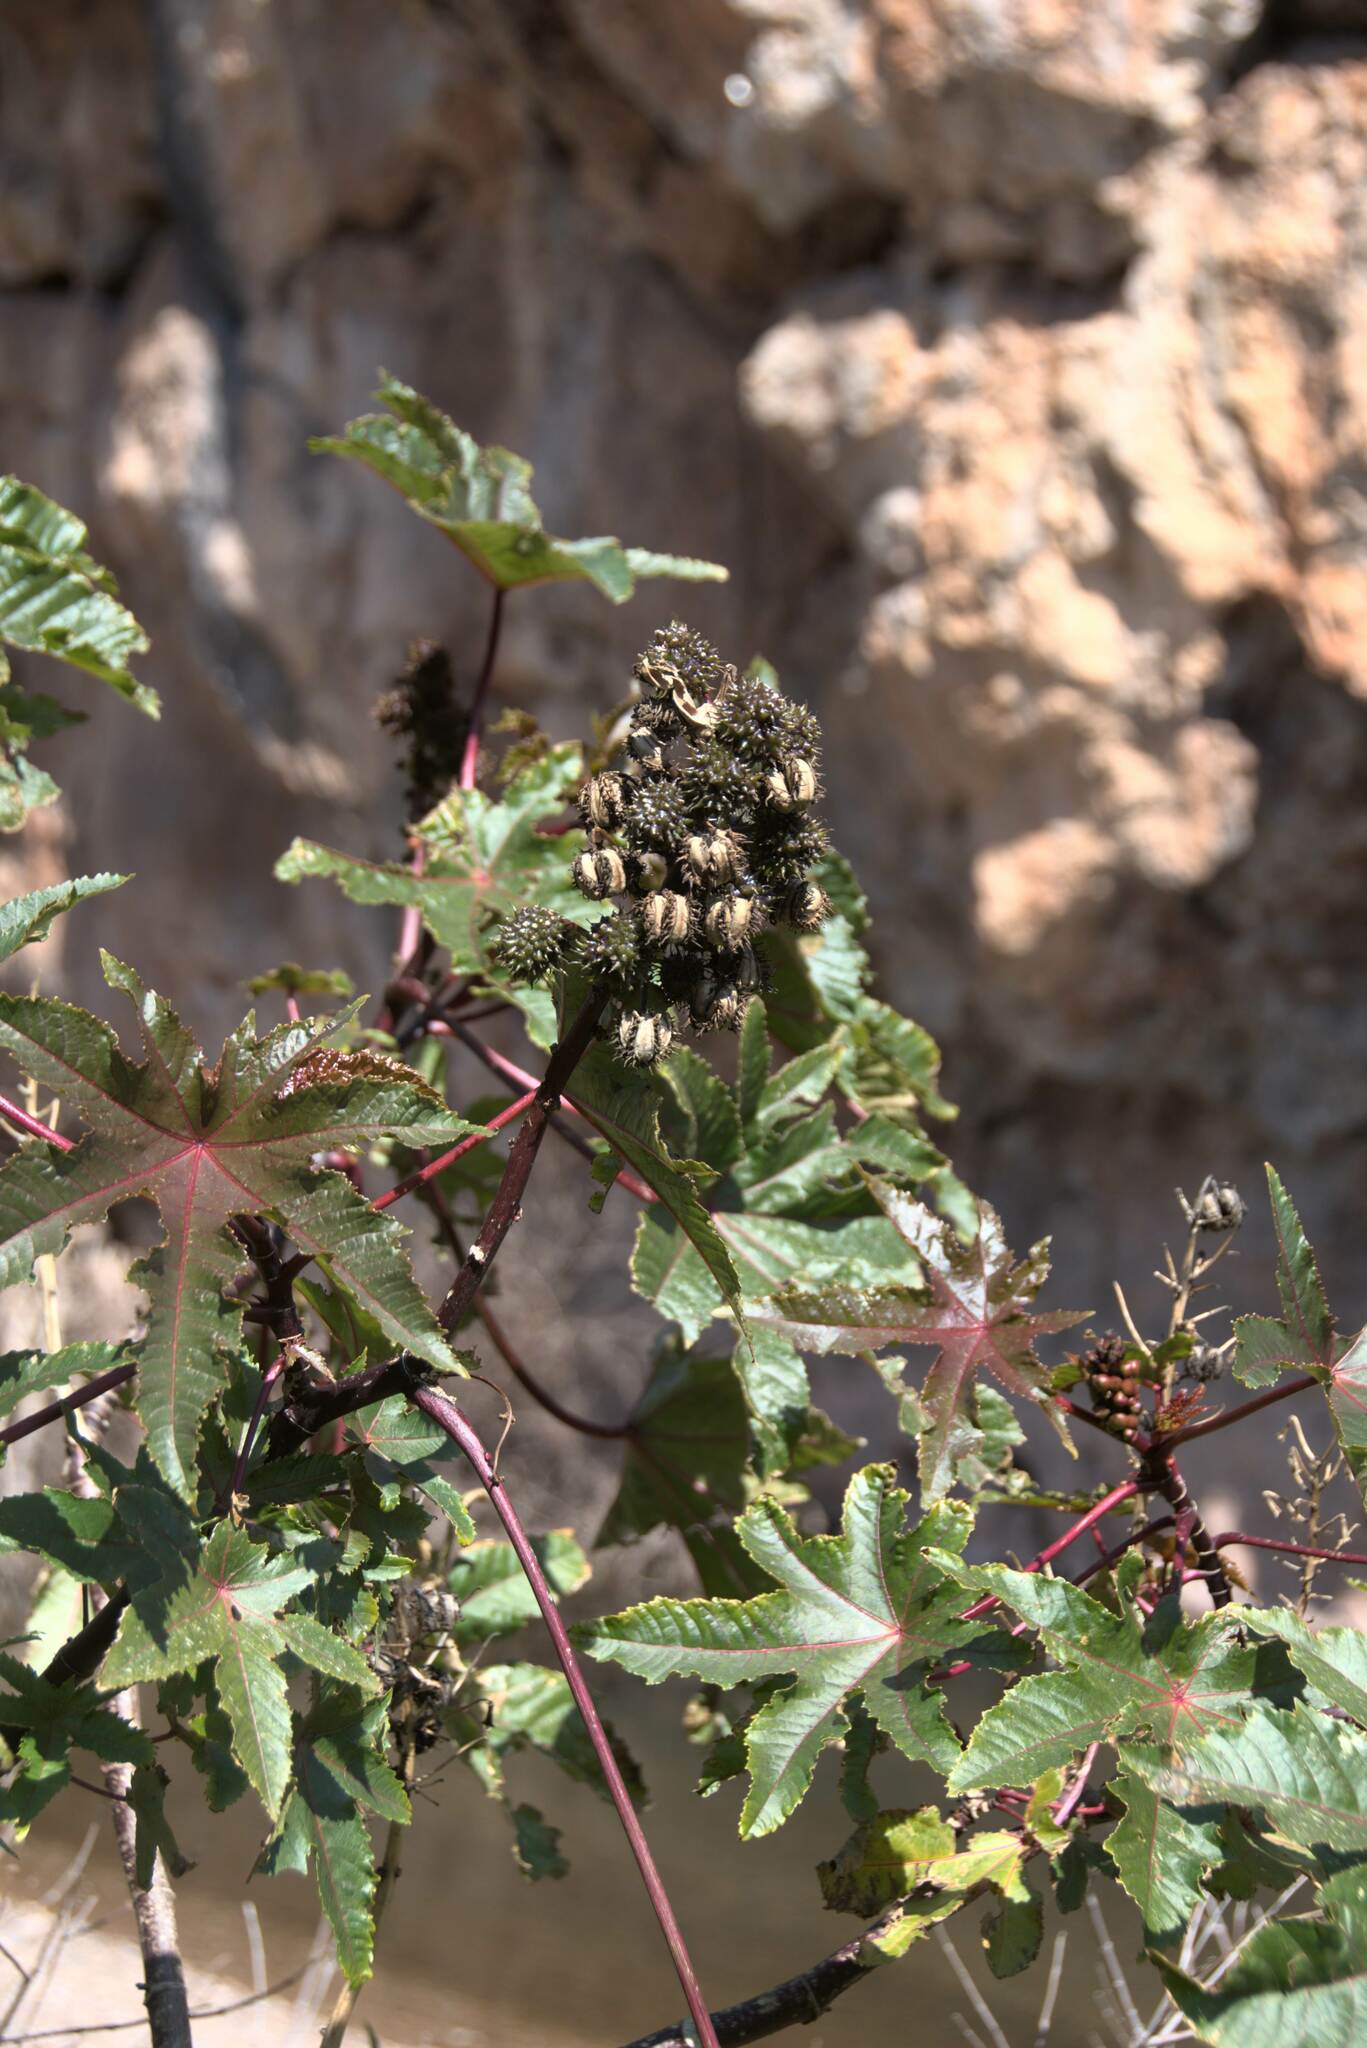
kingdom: Plantae
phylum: Tracheophyta
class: Magnoliopsida
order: Malpighiales
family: Euphorbiaceae
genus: Ricinus
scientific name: Ricinus communis
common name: Castor-oil-plant
